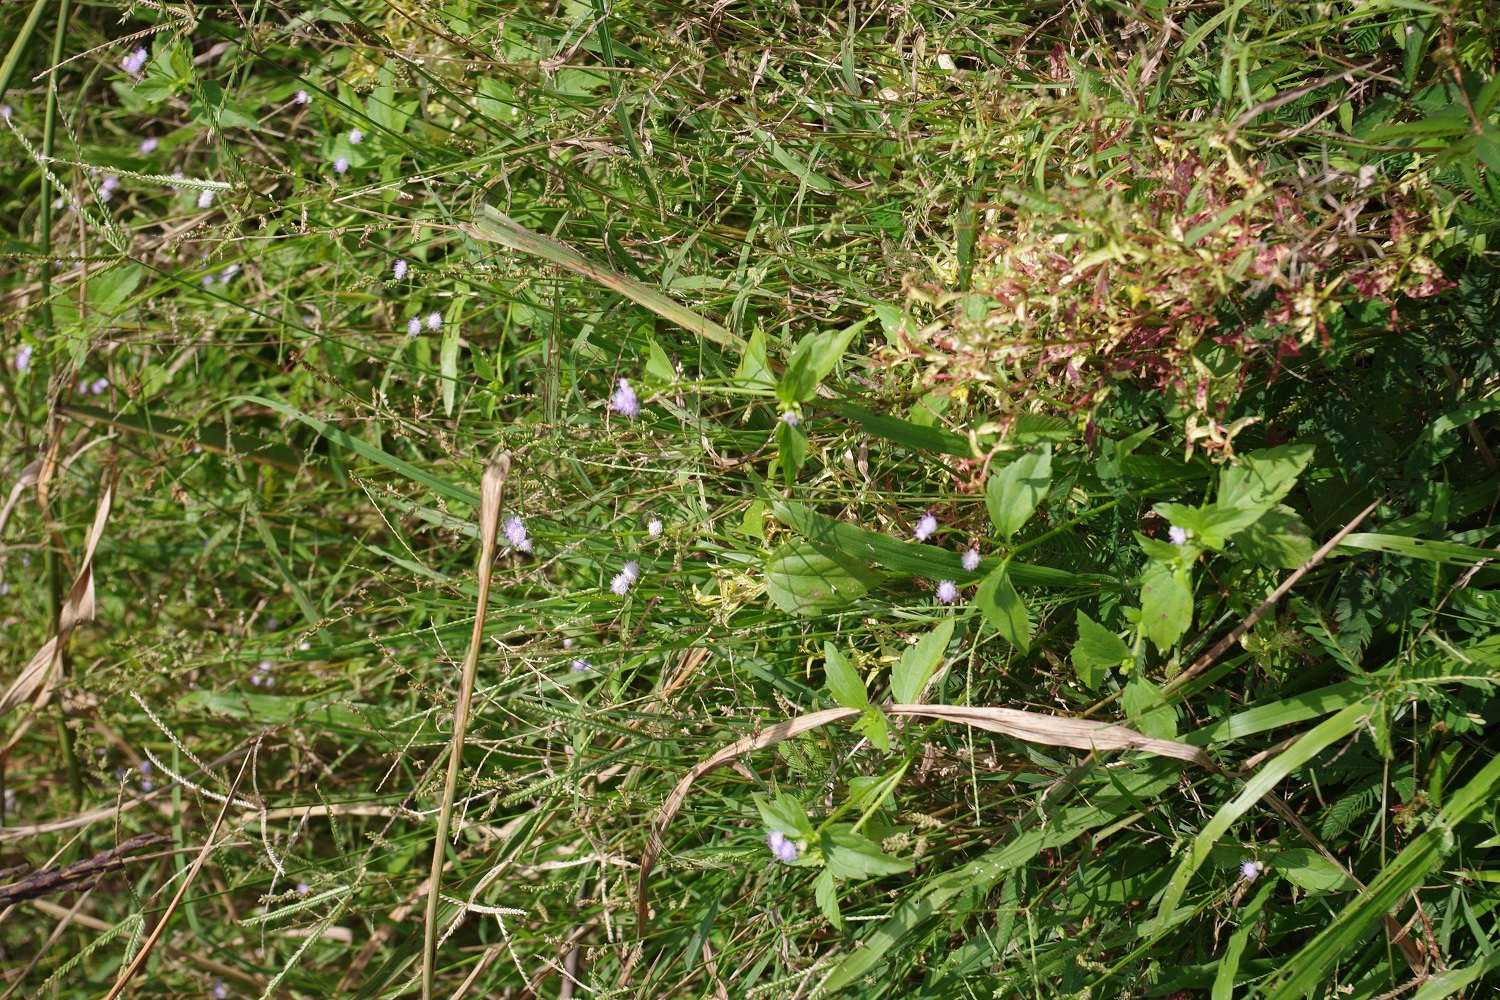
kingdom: Plantae
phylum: Tracheophyta
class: Magnoliopsida
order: Asterales
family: Asteraceae
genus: Praxelis
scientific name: Praxelis clematidea
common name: Praxelis
